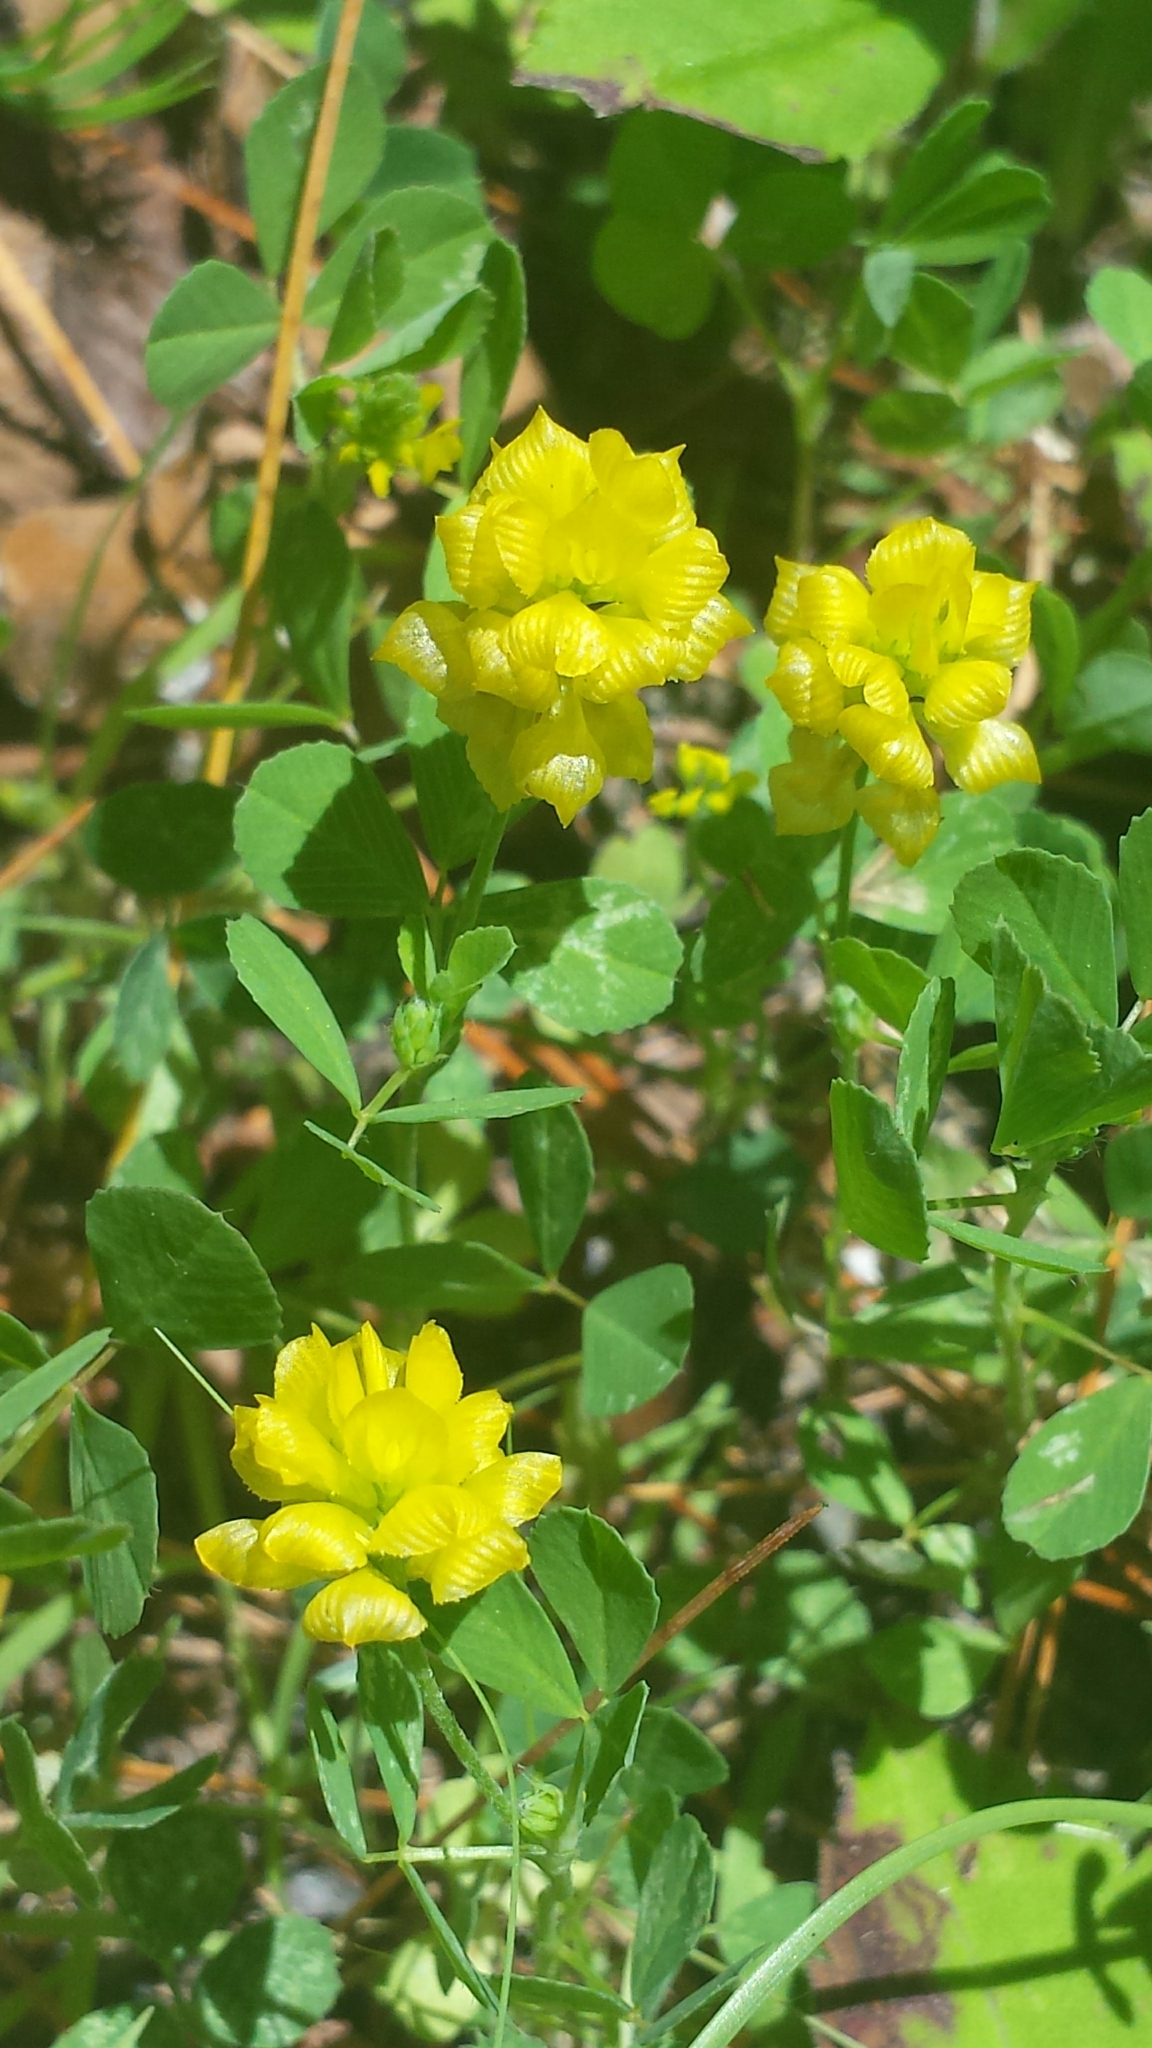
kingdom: Plantae
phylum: Tracheophyta
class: Magnoliopsida
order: Fabales
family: Fabaceae
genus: Trifolium
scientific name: Trifolium campestre
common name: Field clover
